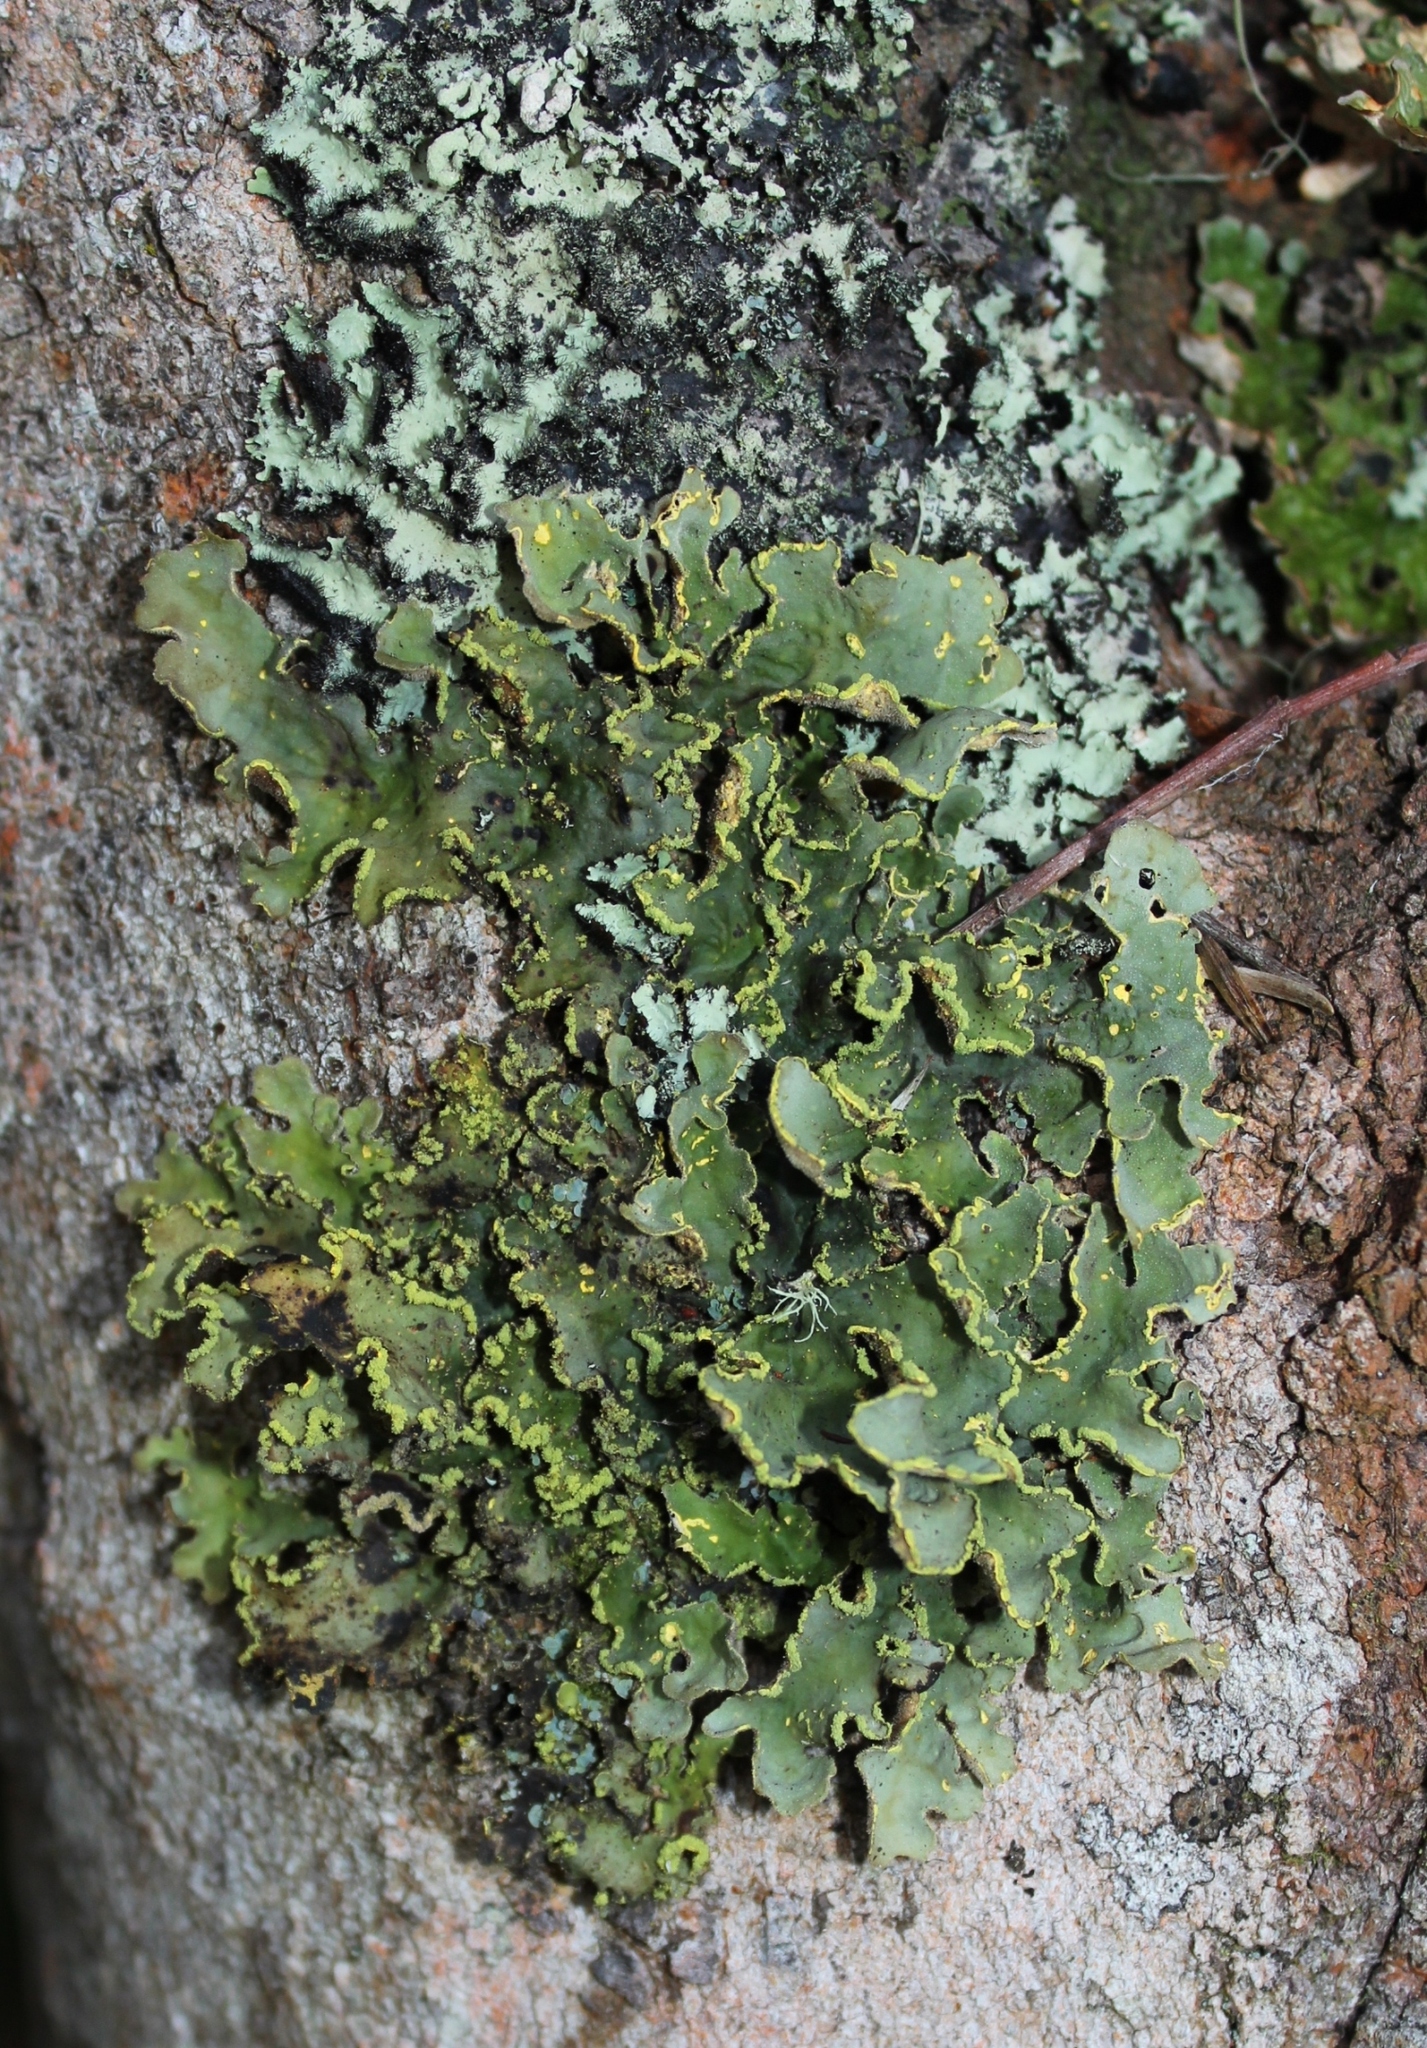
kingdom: Fungi
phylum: Ascomycota
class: Lecanoromycetes
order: Peltigerales
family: Lobariaceae
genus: Pseudocyphellaria
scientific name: Pseudocyphellaria aurata
